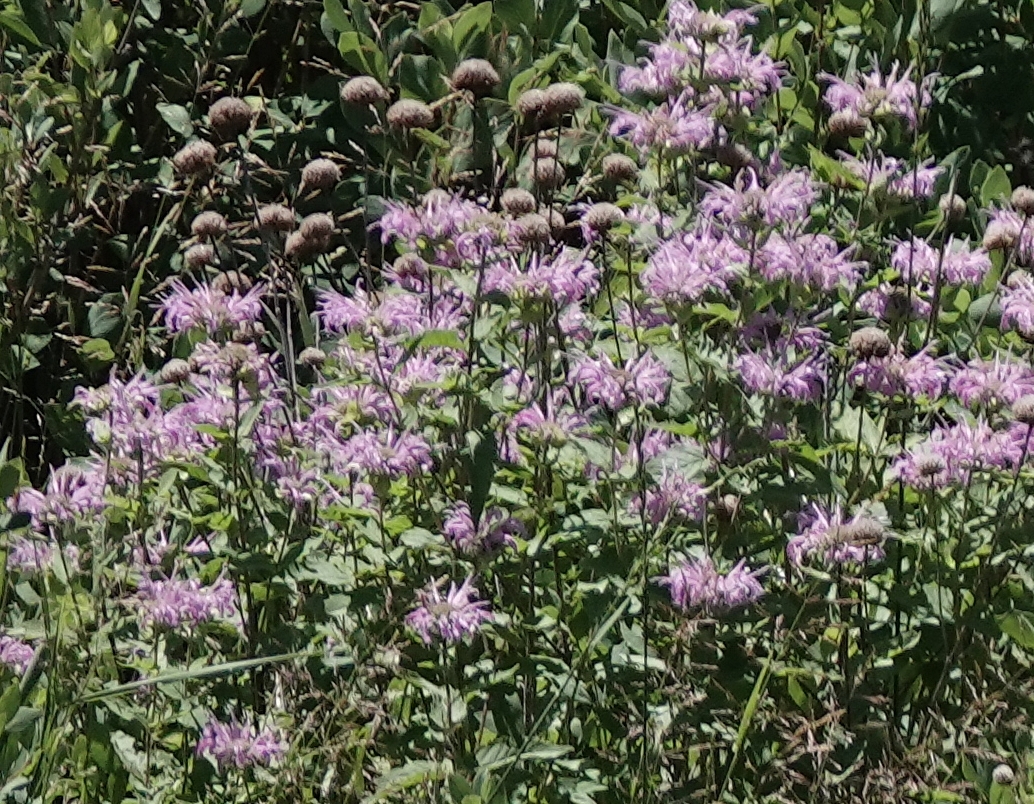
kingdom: Plantae
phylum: Tracheophyta
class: Magnoliopsida
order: Lamiales
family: Lamiaceae
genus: Monarda
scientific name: Monarda fistulosa
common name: Purple beebalm
